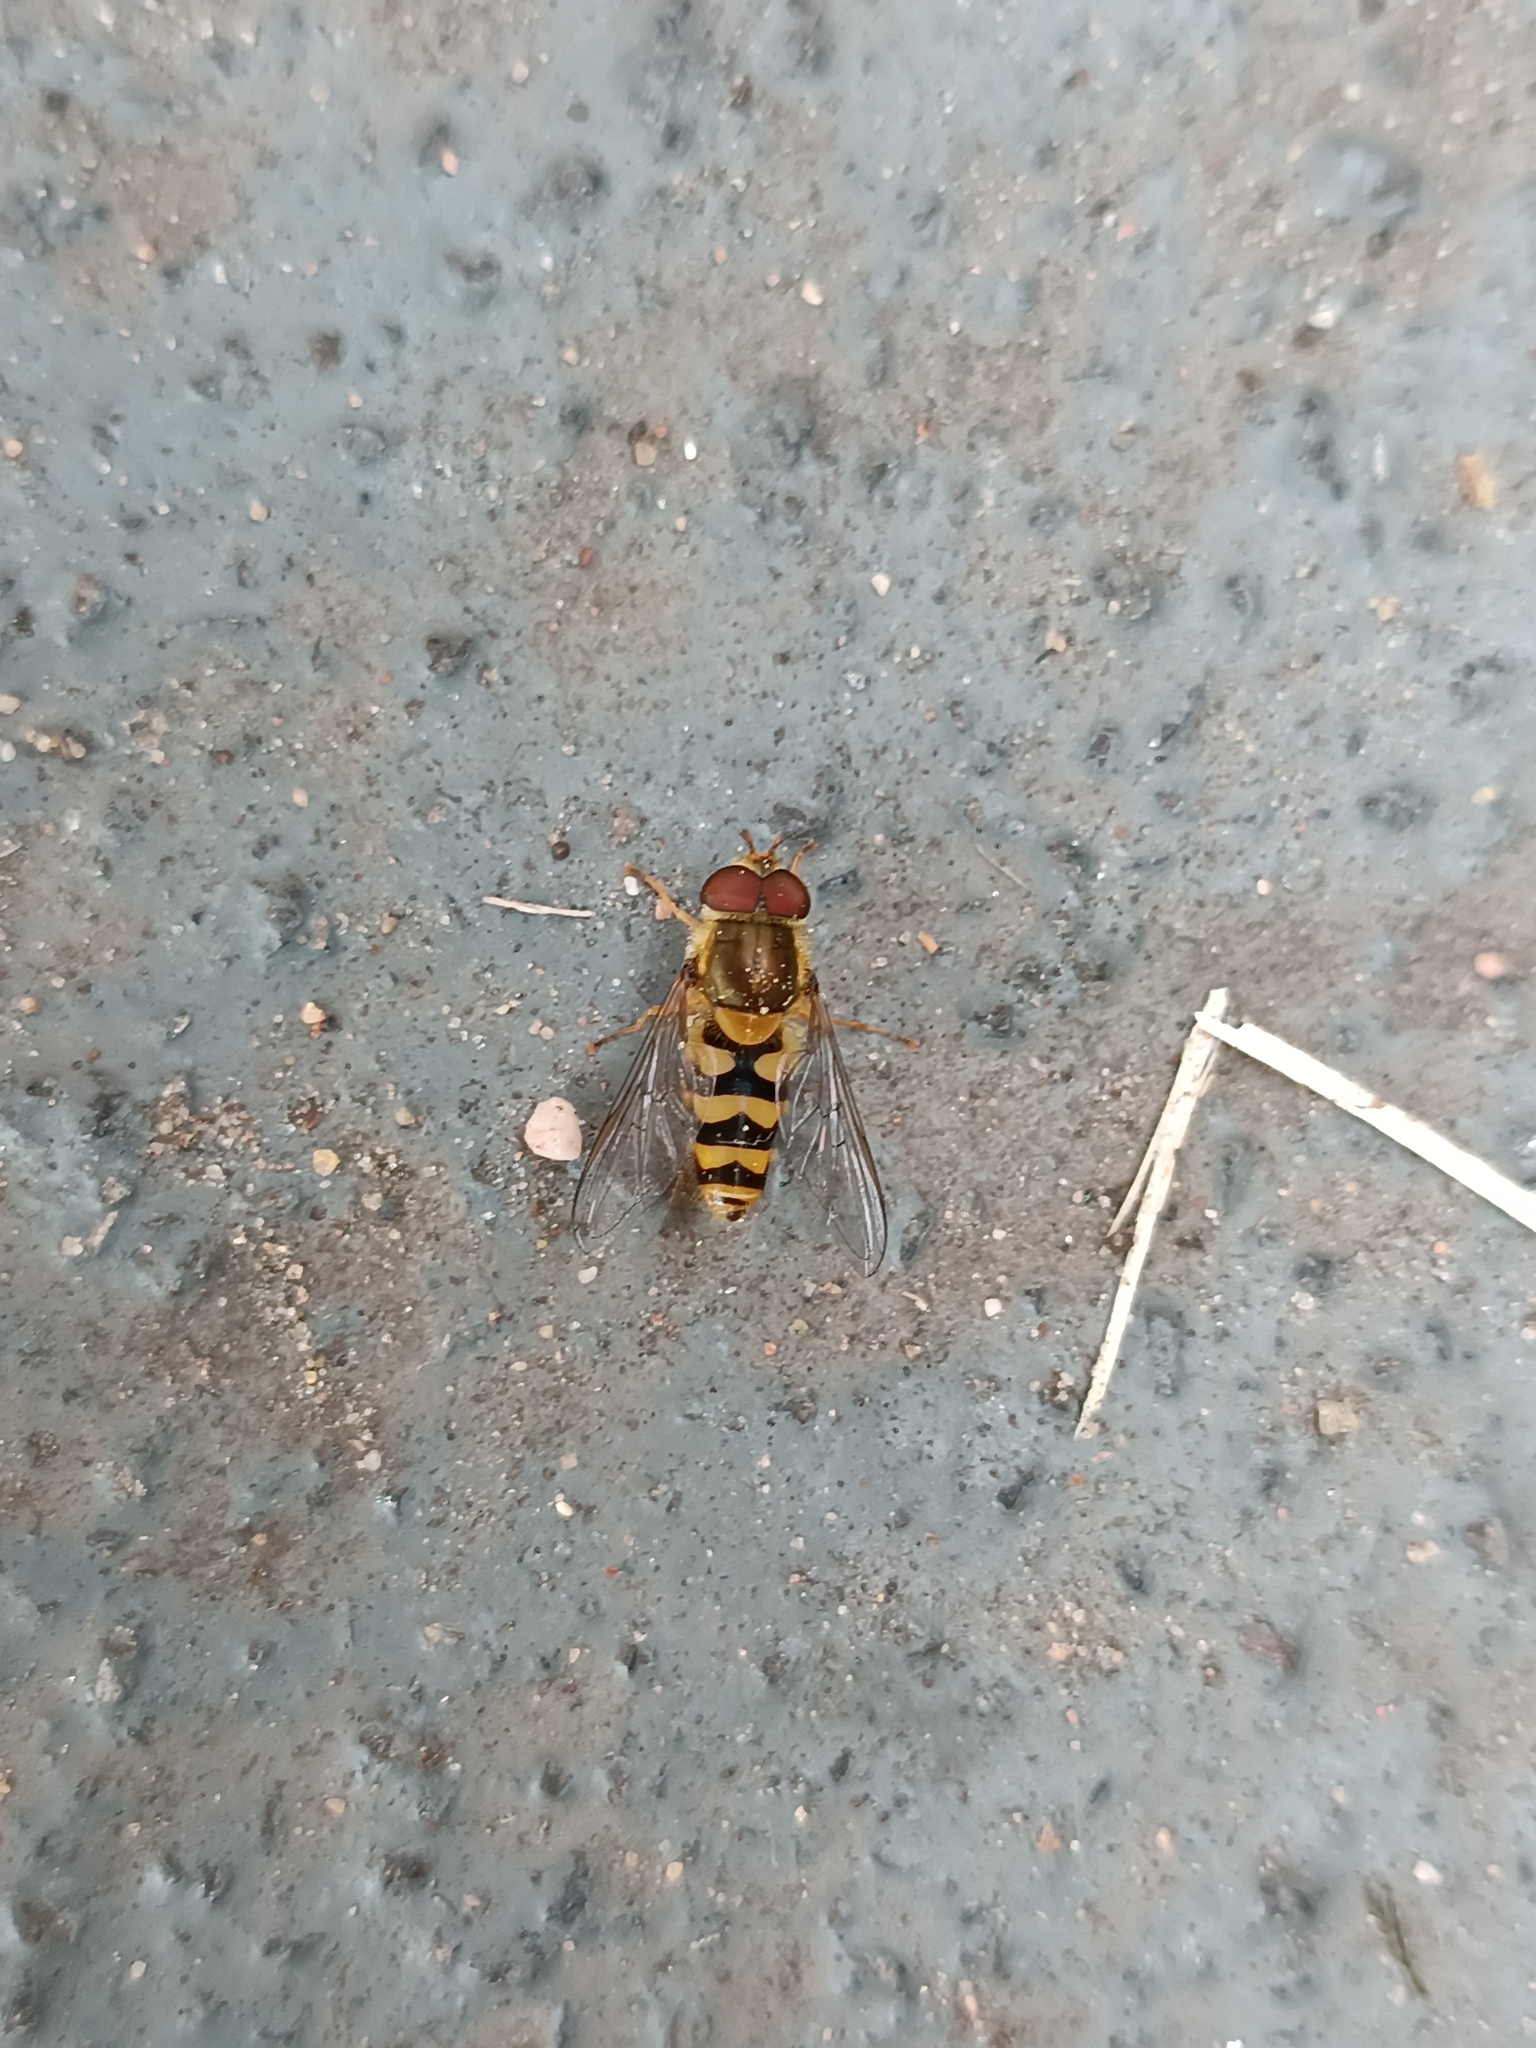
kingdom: Animalia
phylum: Arthropoda
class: Insecta
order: Diptera
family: Syrphidae
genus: Syrphus
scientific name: Syrphus
